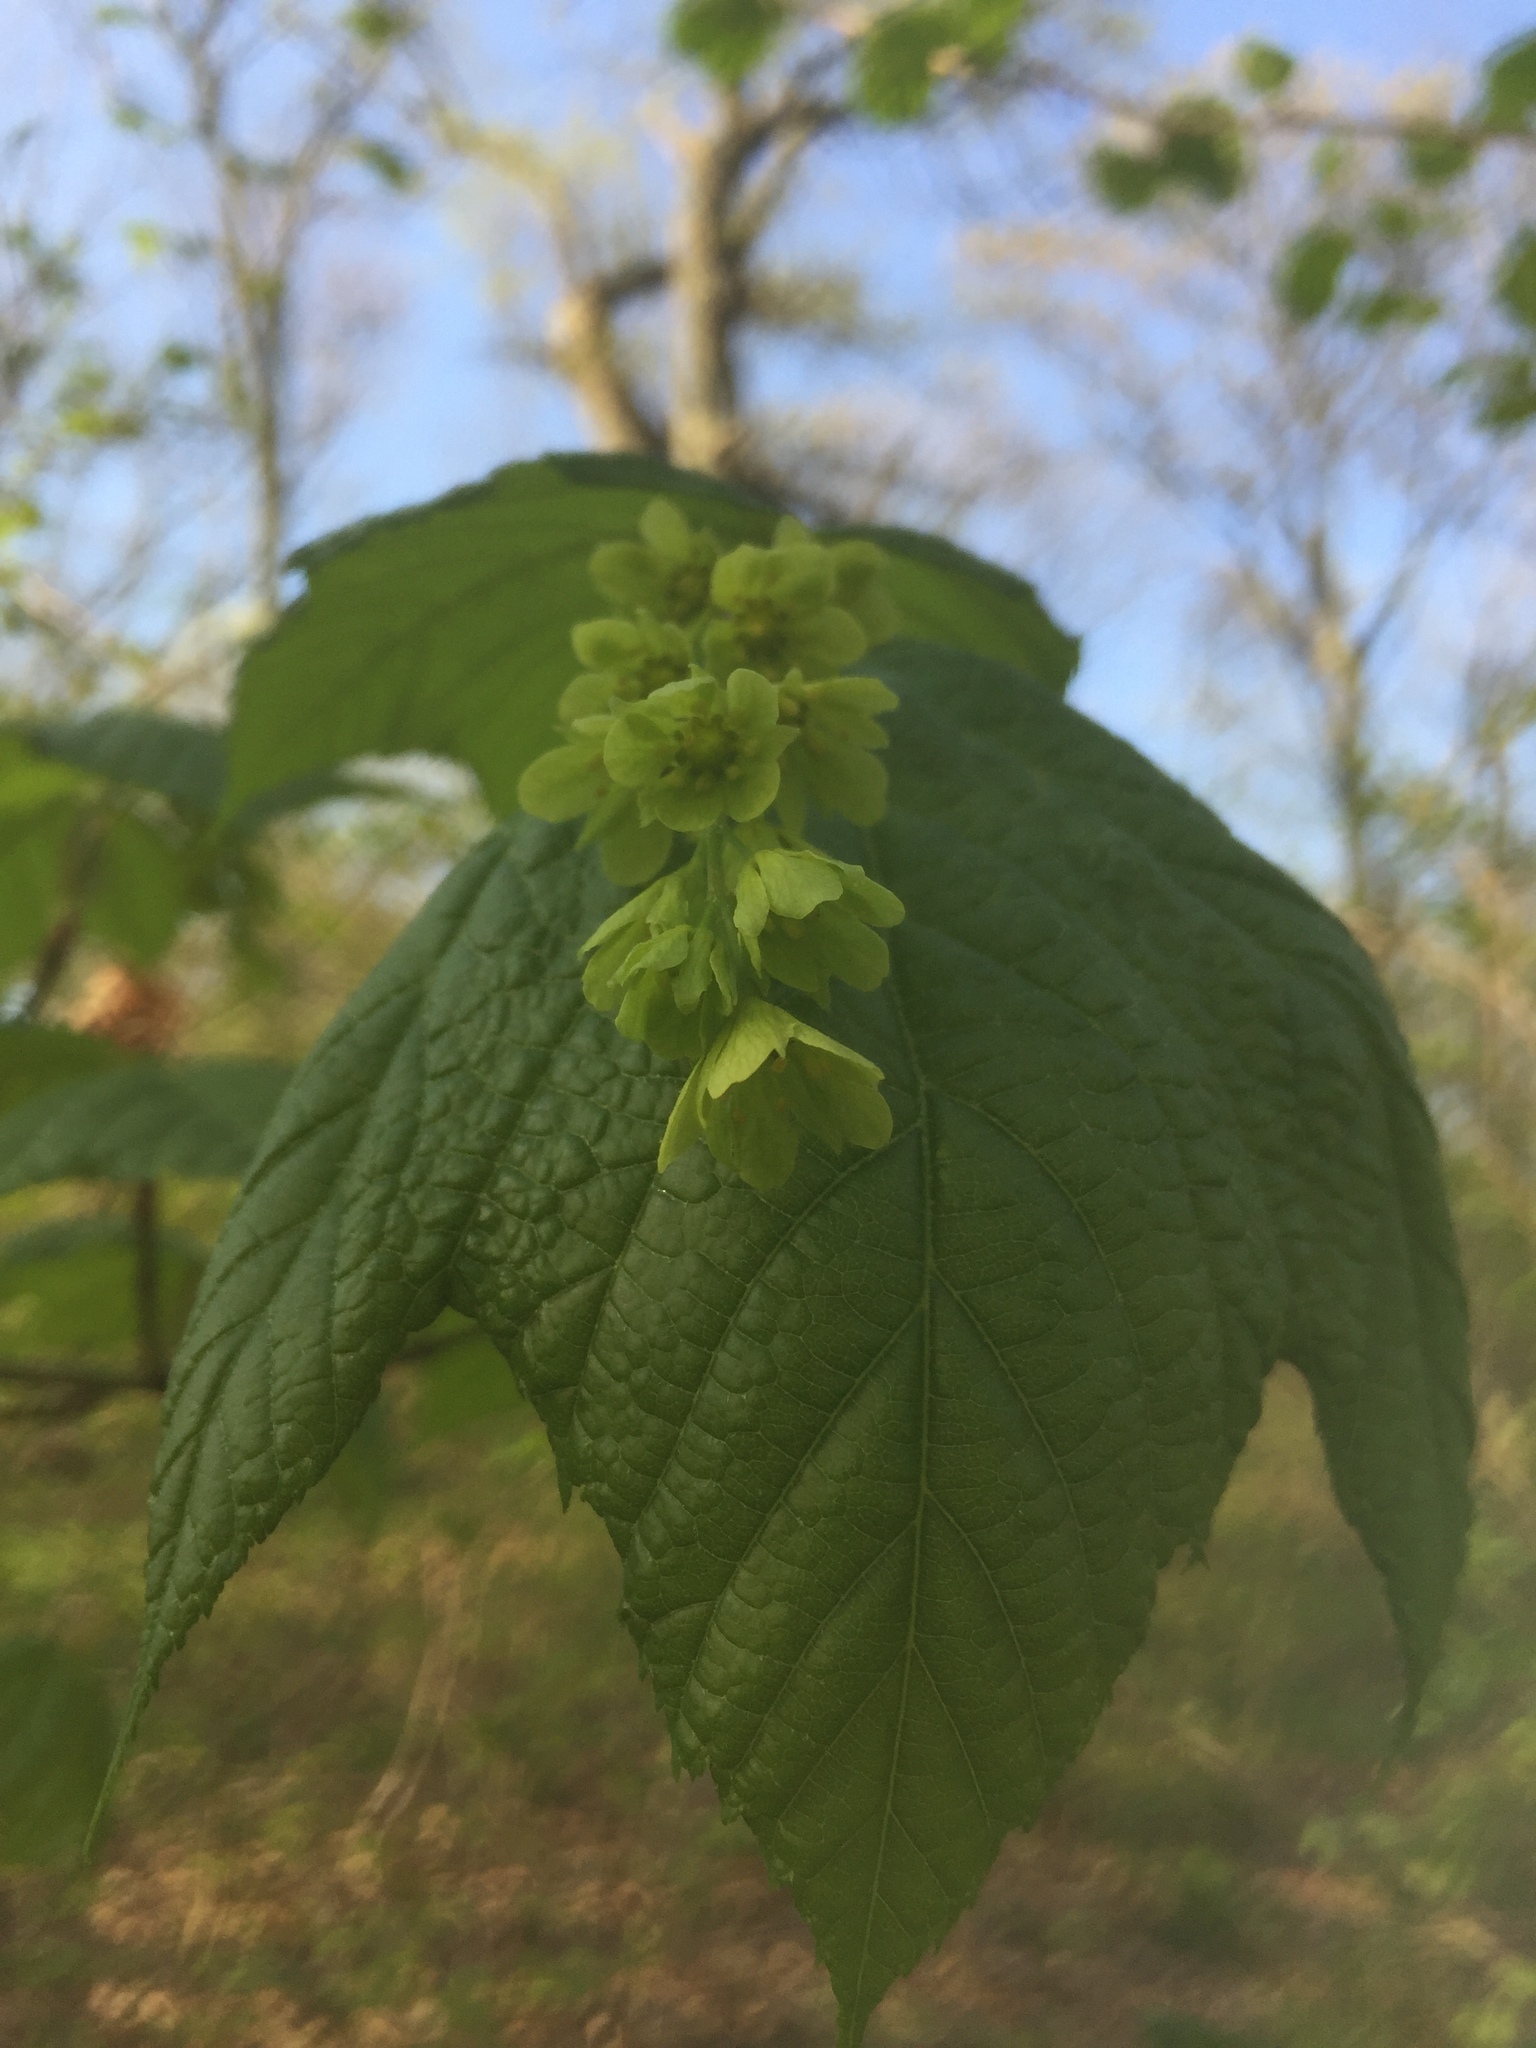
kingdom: Plantae
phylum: Tracheophyta
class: Magnoliopsida
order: Sapindales
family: Sapindaceae
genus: Acer
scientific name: Acer pensylvanicum
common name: Moosewood
